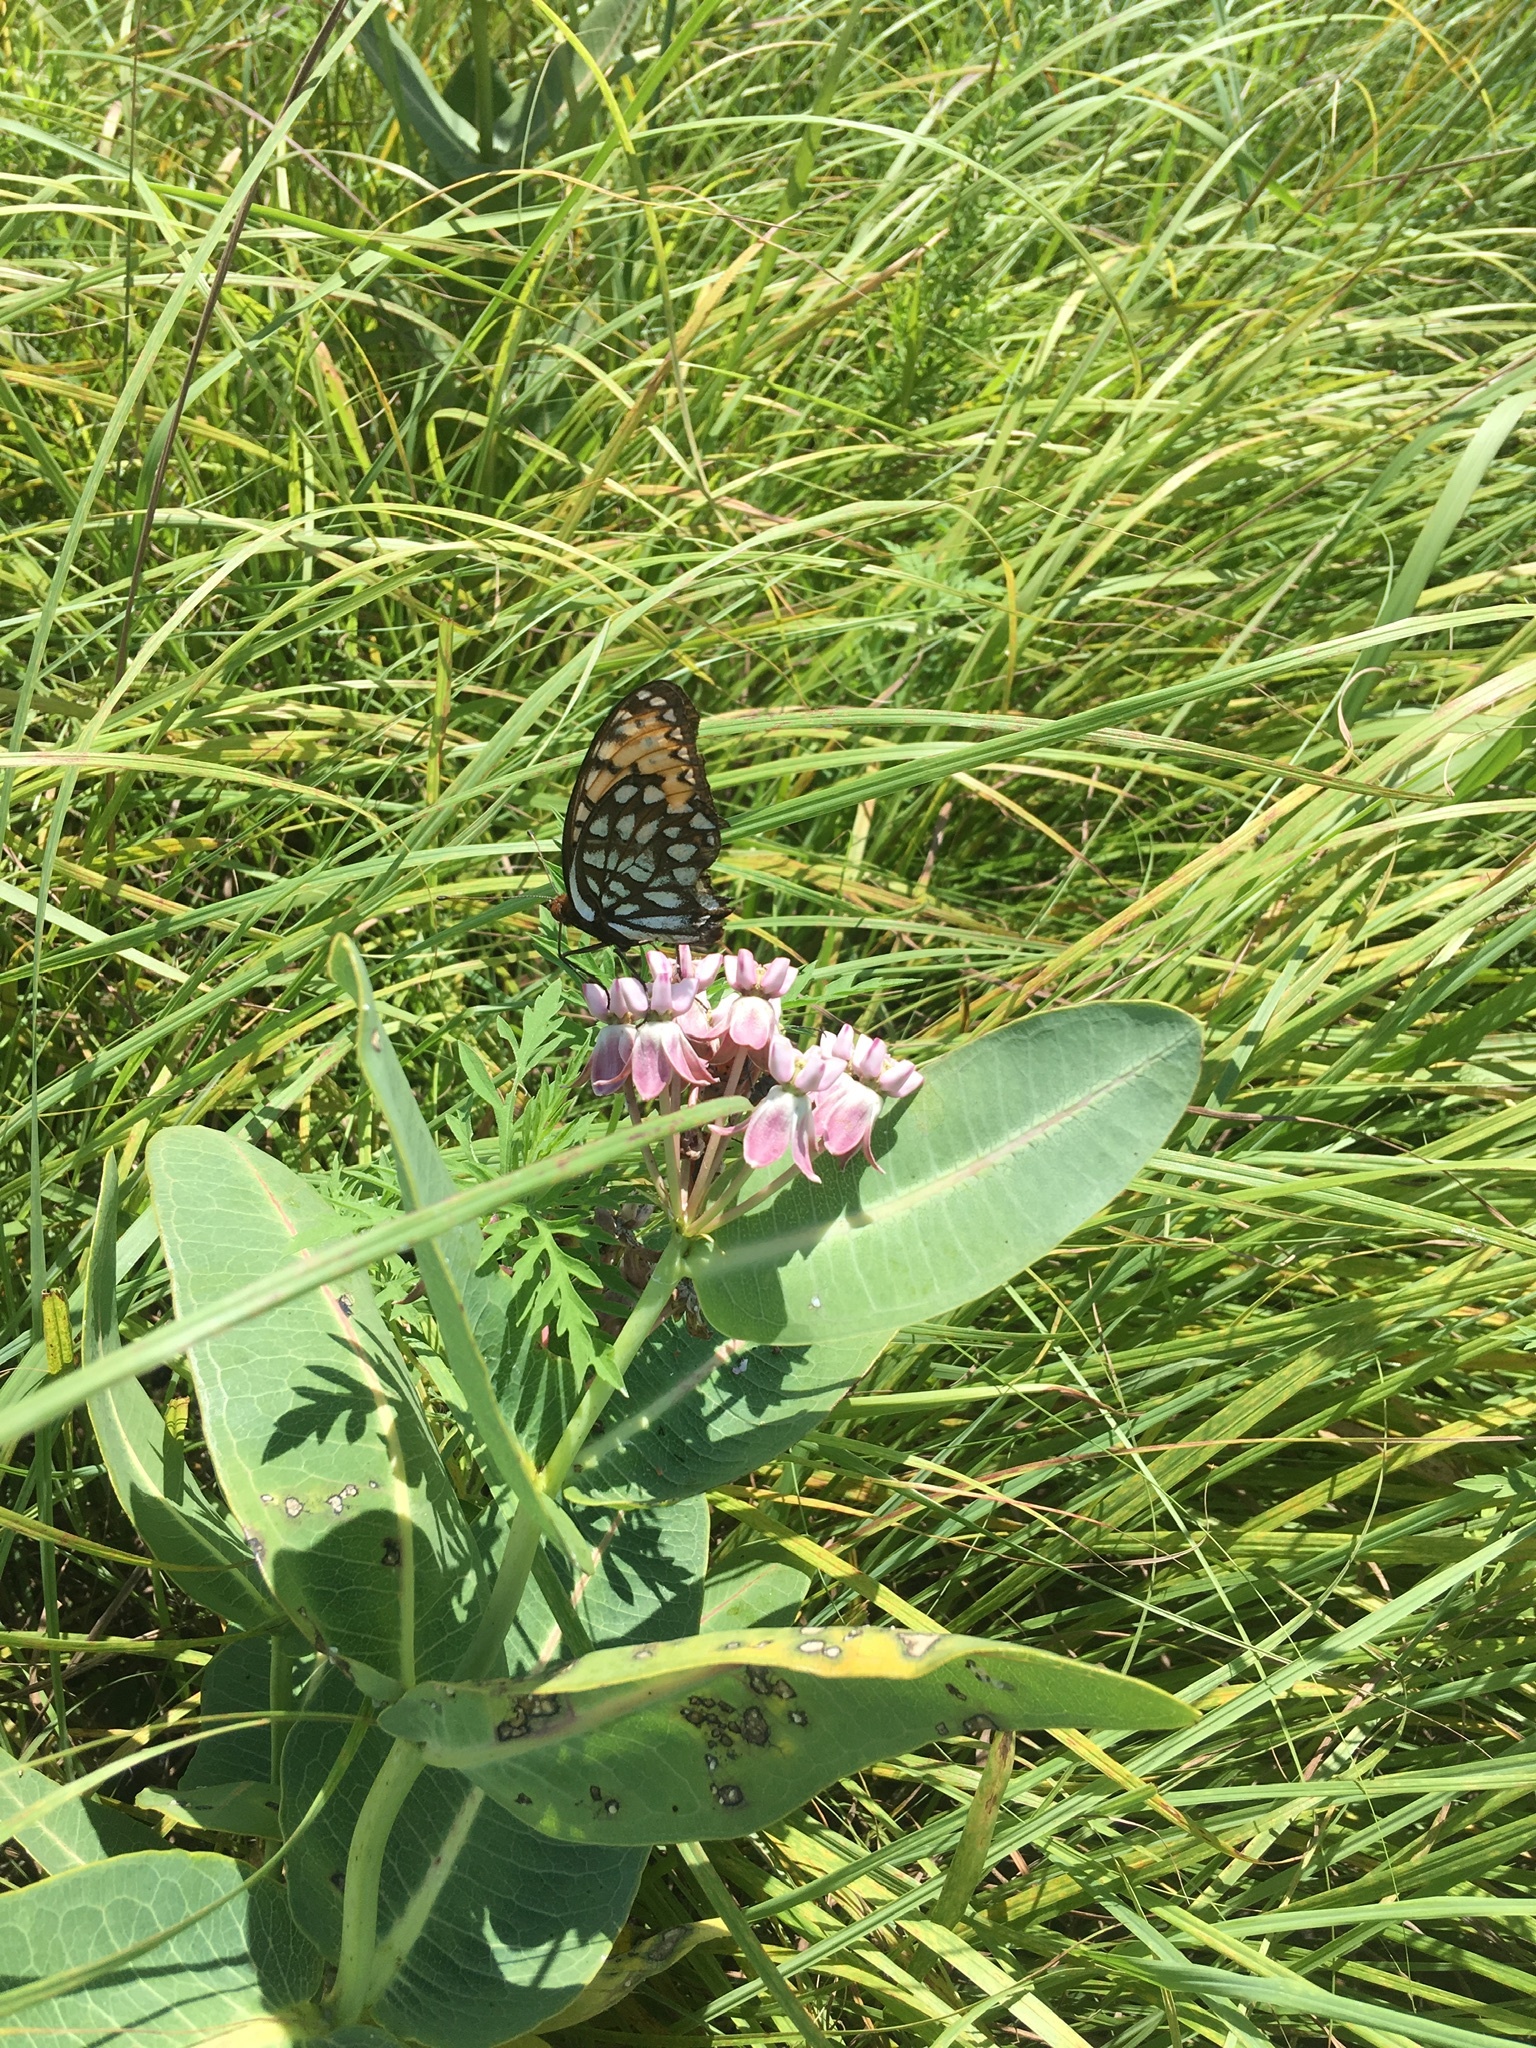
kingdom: Animalia
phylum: Arthropoda
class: Insecta
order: Lepidoptera
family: Nymphalidae
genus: Speyeria
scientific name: Speyeria idalia
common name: Regal fritillary
